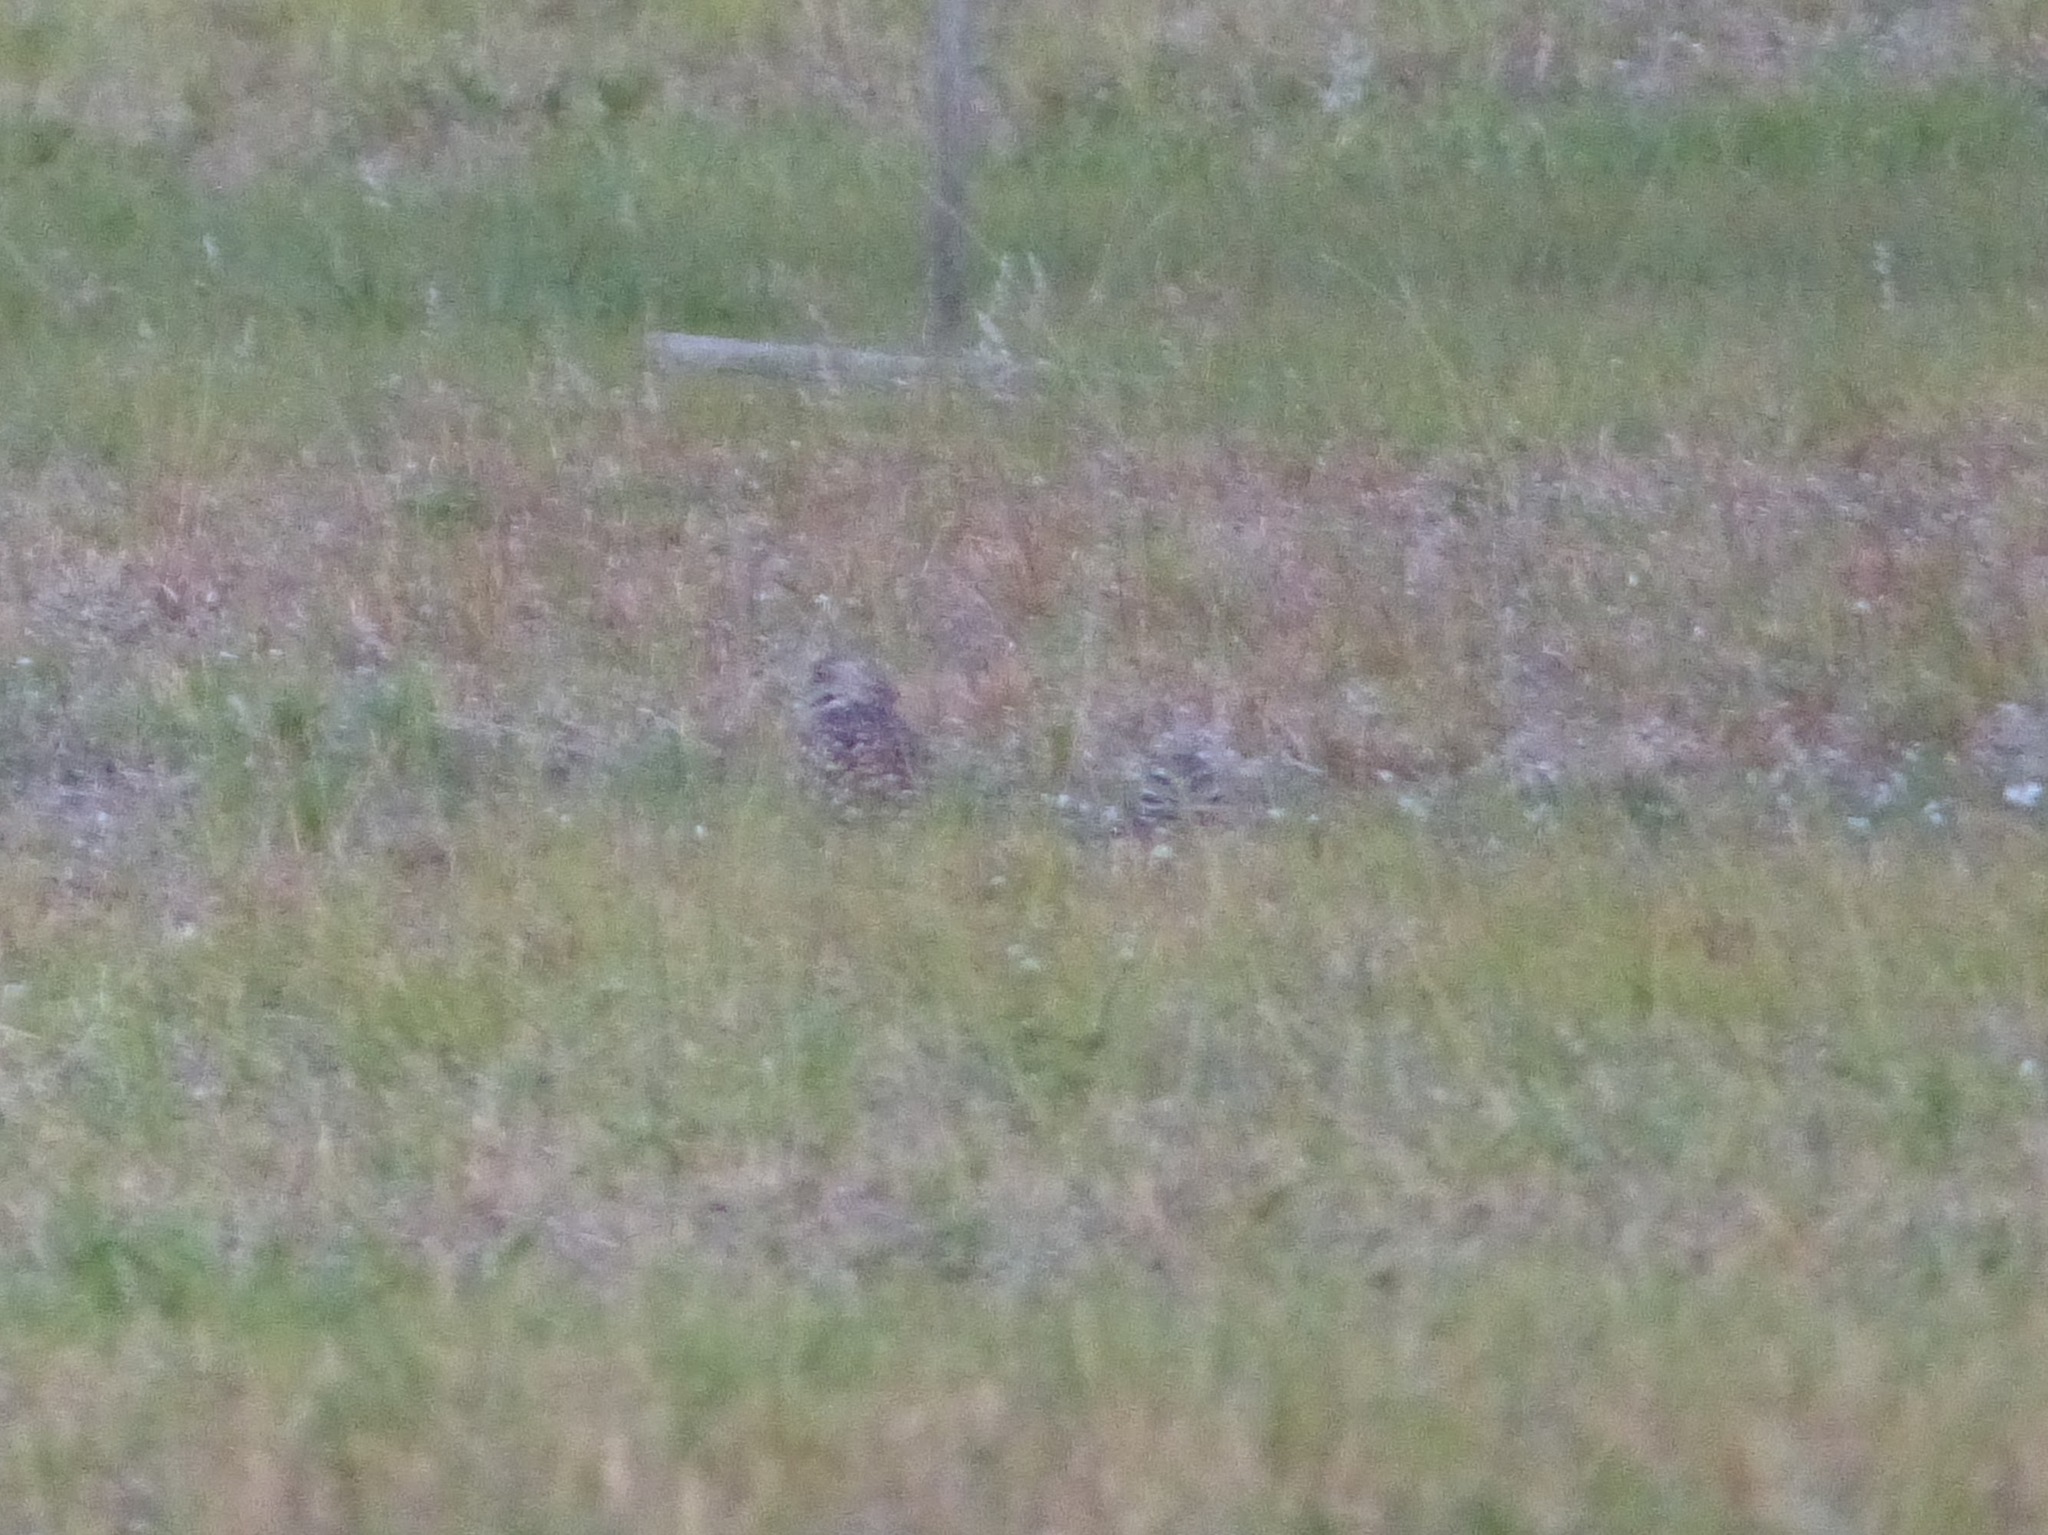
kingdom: Animalia
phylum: Chordata
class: Aves
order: Strigiformes
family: Strigidae
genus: Athene
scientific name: Athene cunicularia
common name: Burrowing owl
